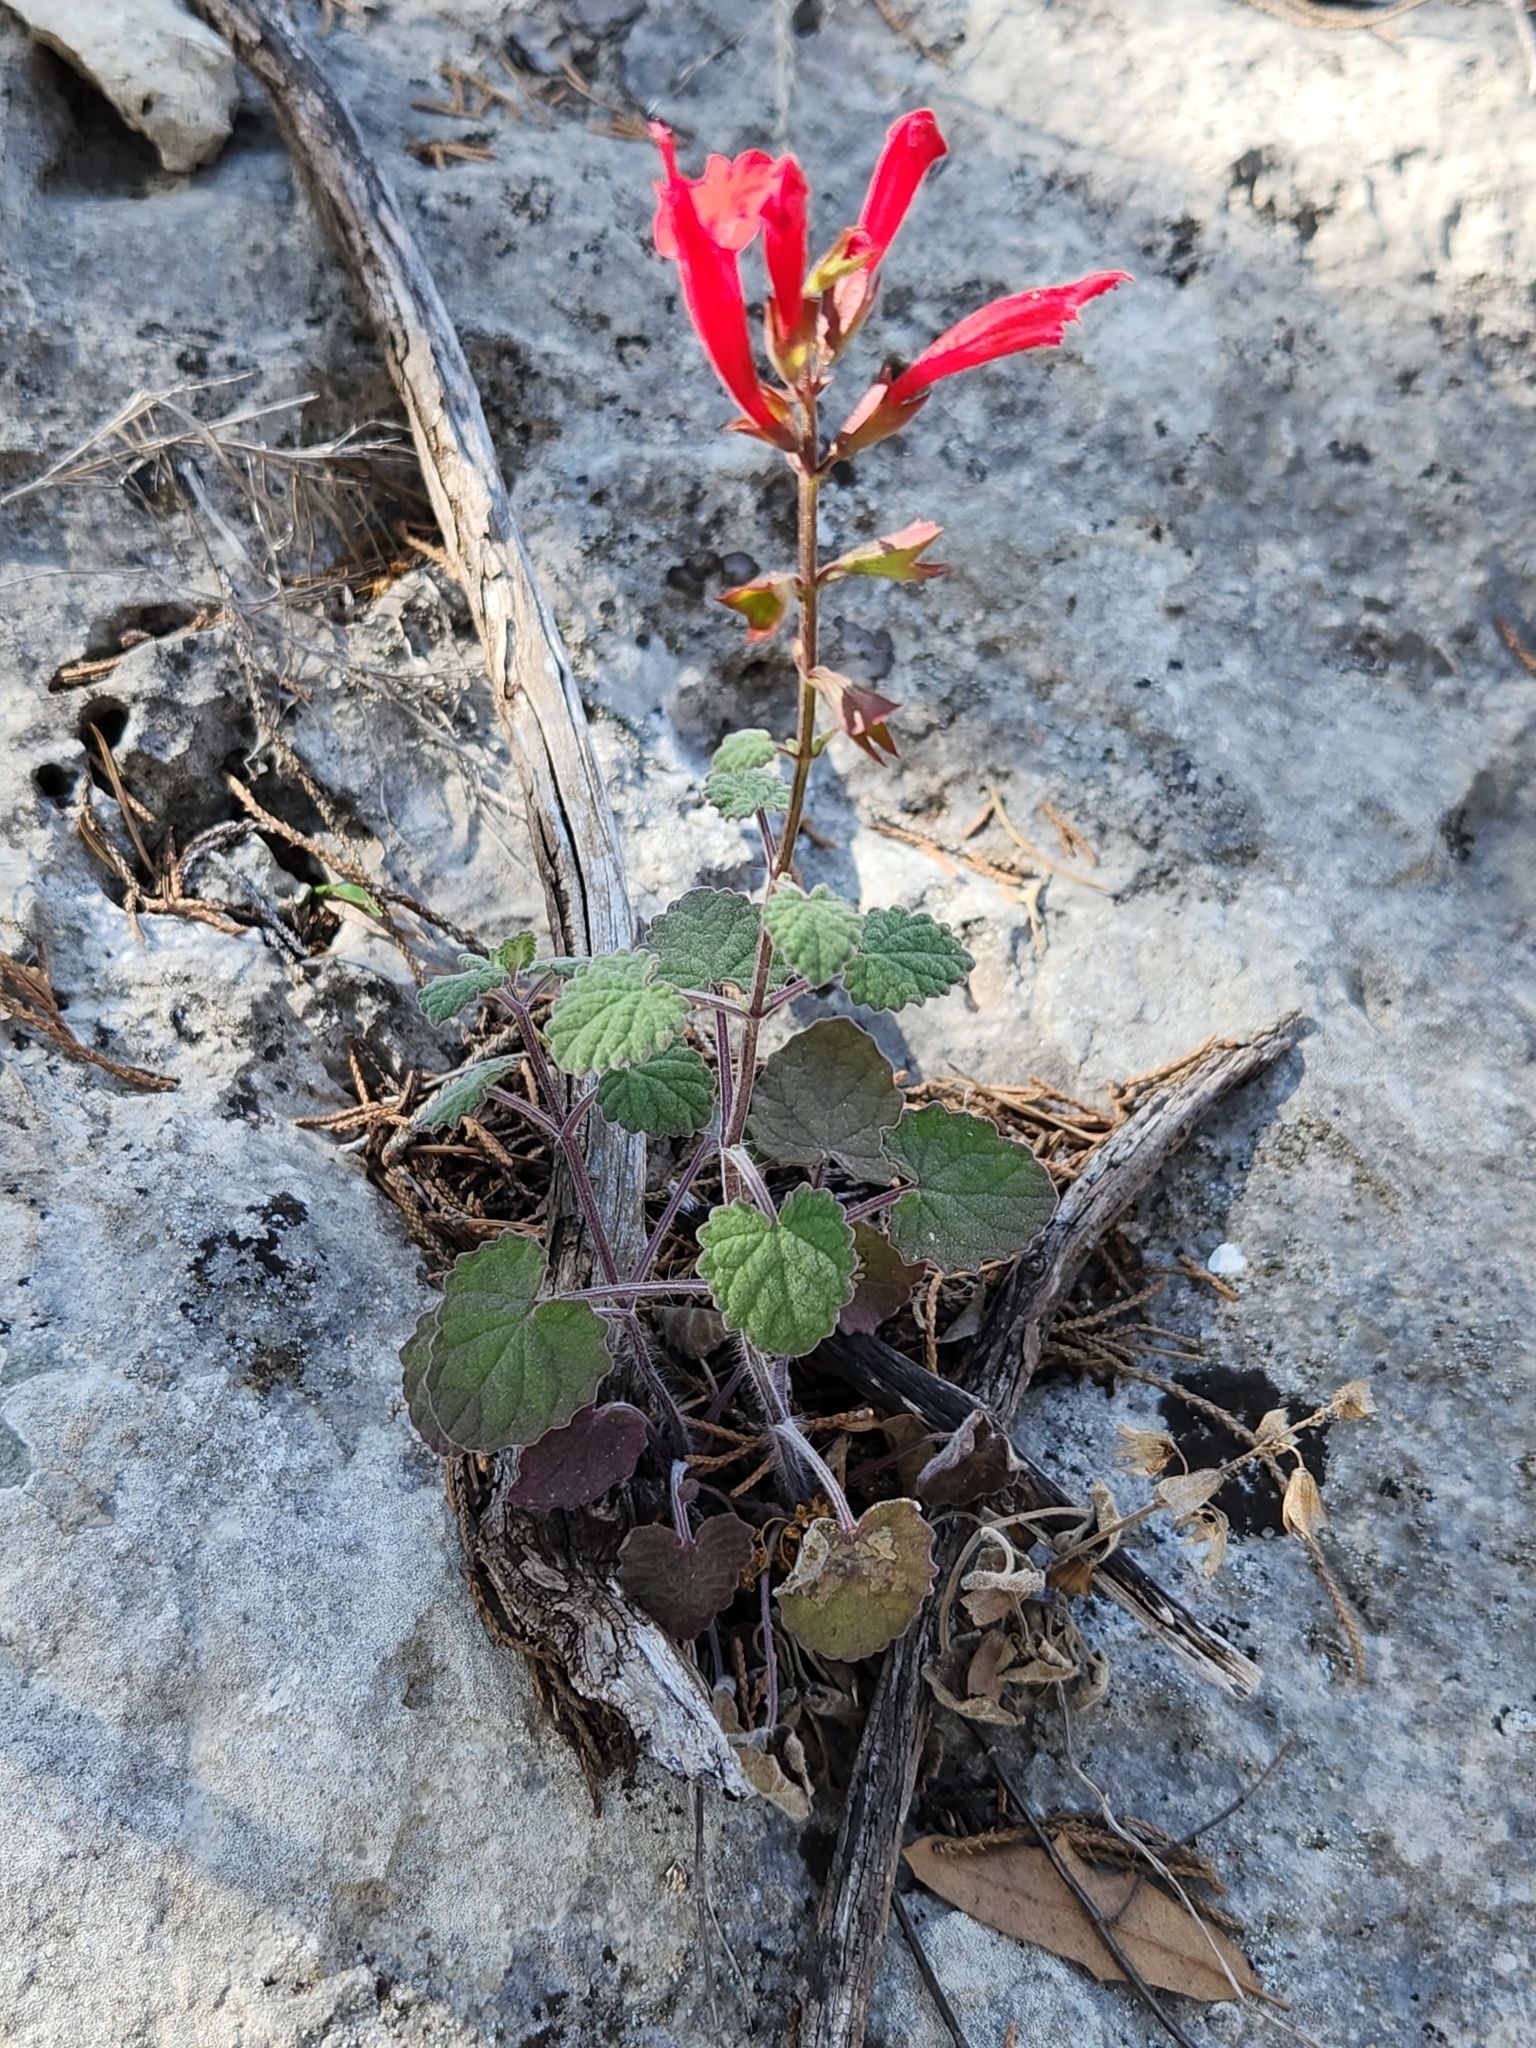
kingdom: Plantae
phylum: Tracheophyta
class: Magnoliopsida
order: Lamiales
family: Lamiaceae
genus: Salvia
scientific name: Salvia roemeriana
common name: Cedar sage
